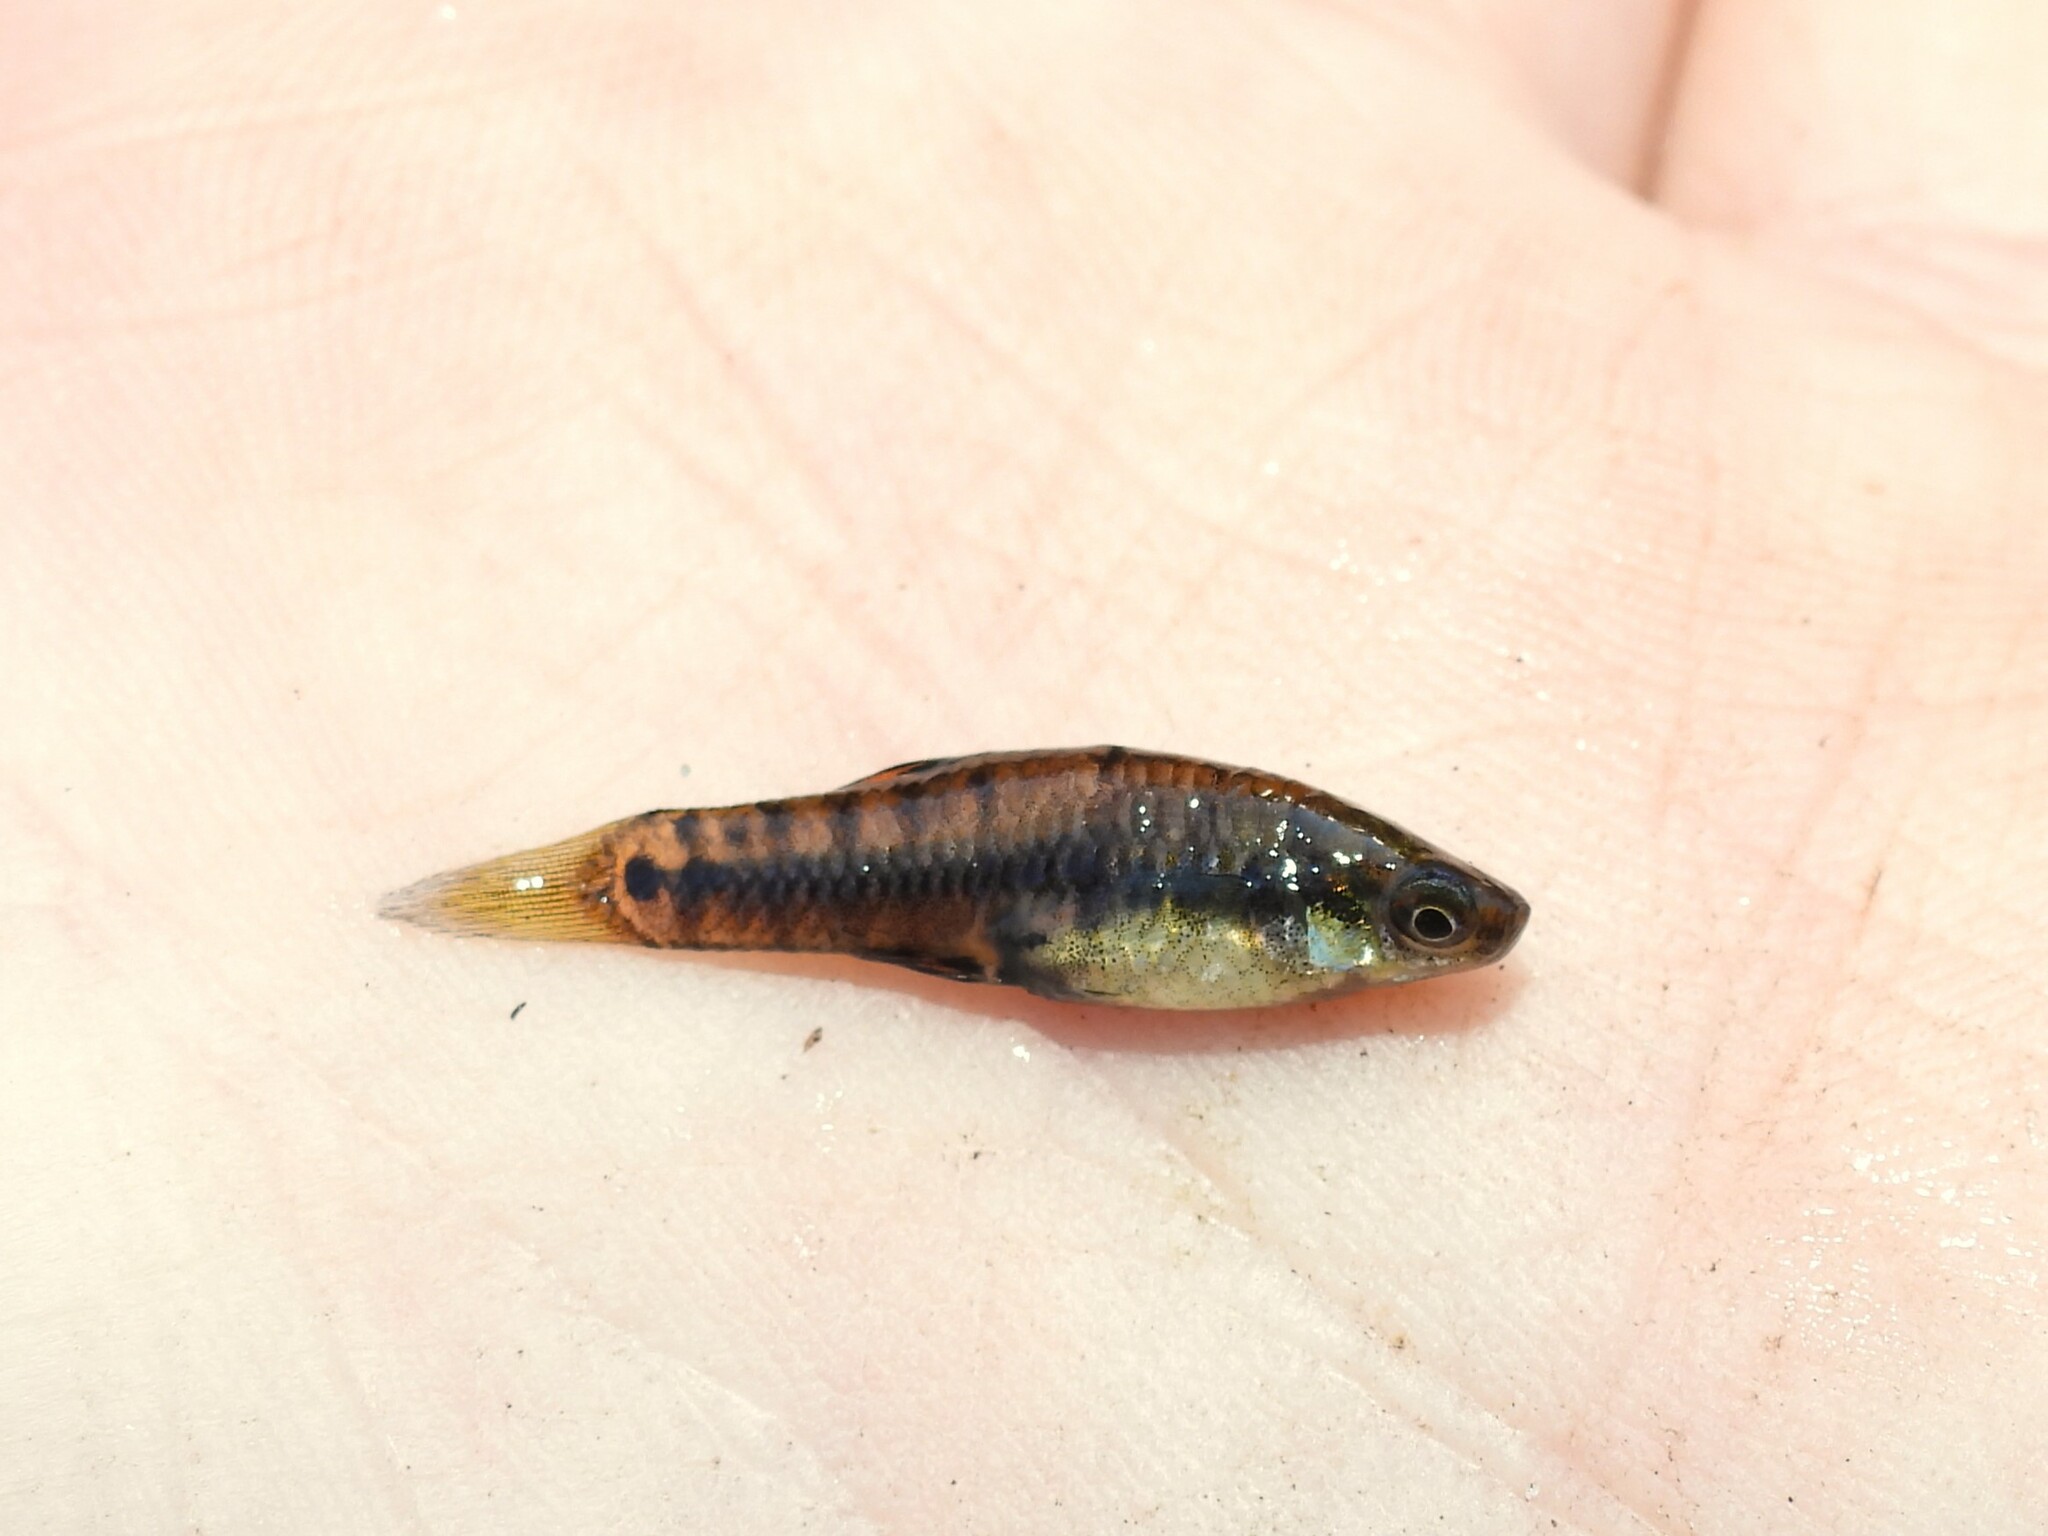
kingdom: Animalia
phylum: Chordata
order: Cyprinodontiformes
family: Poeciliidae
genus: Heterandria
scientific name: Heterandria formosa
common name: Least killifish
